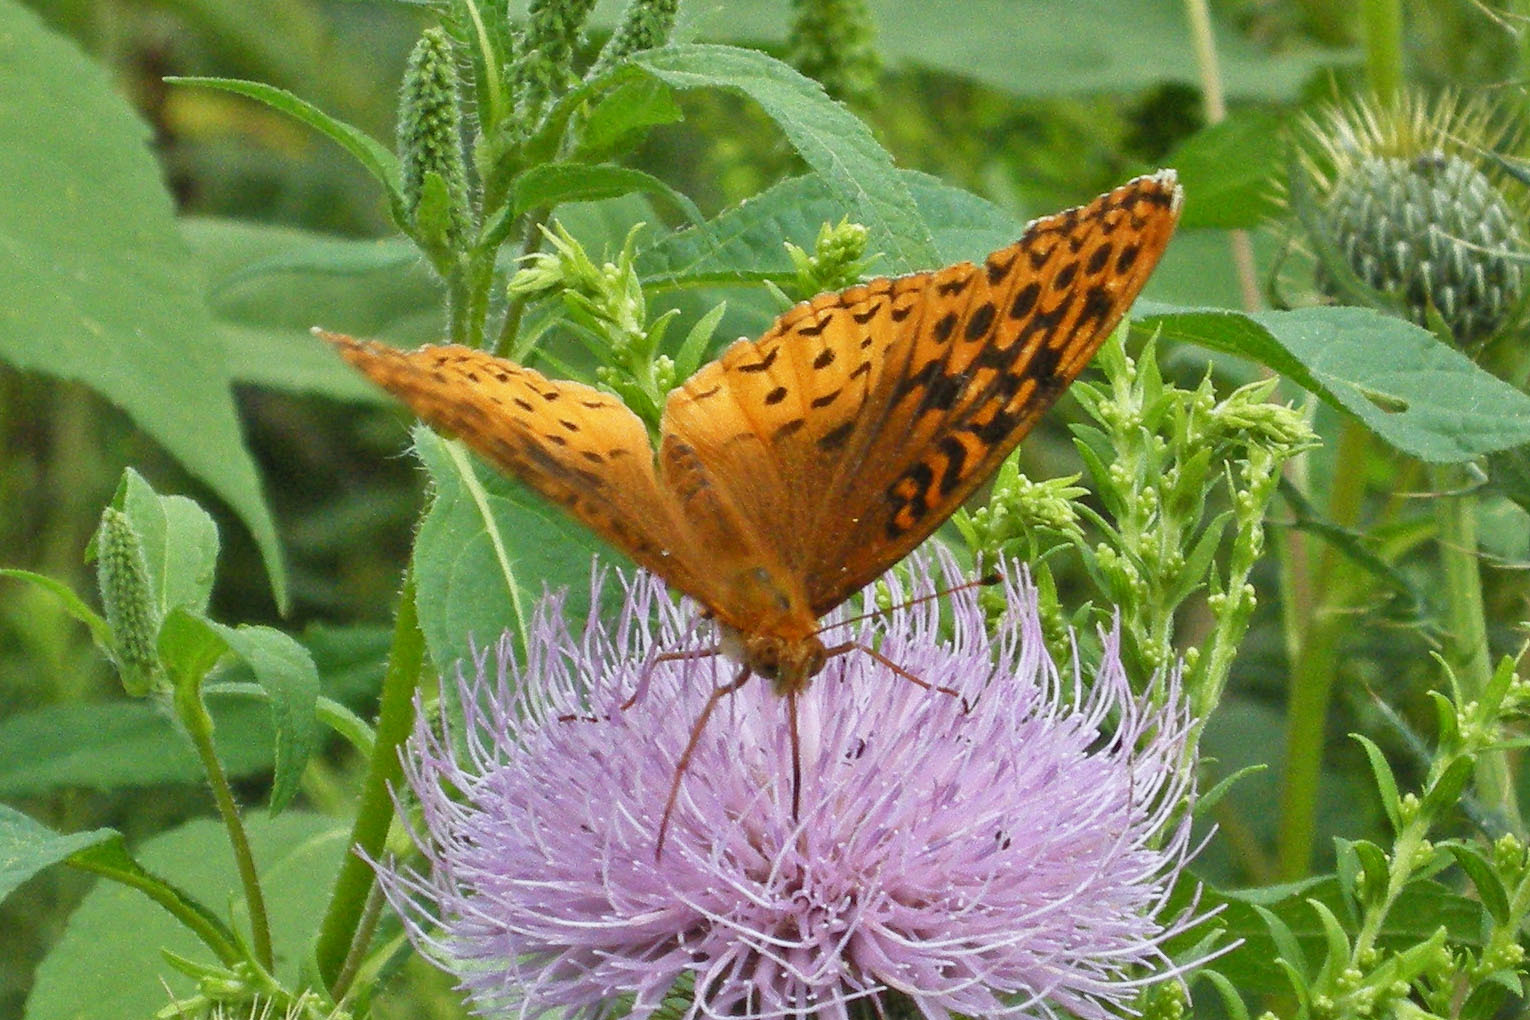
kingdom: Animalia
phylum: Arthropoda
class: Insecta
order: Lepidoptera
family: Nymphalidae
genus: Speyeria
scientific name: Speyeria cybele
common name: Great spangled fritillary
